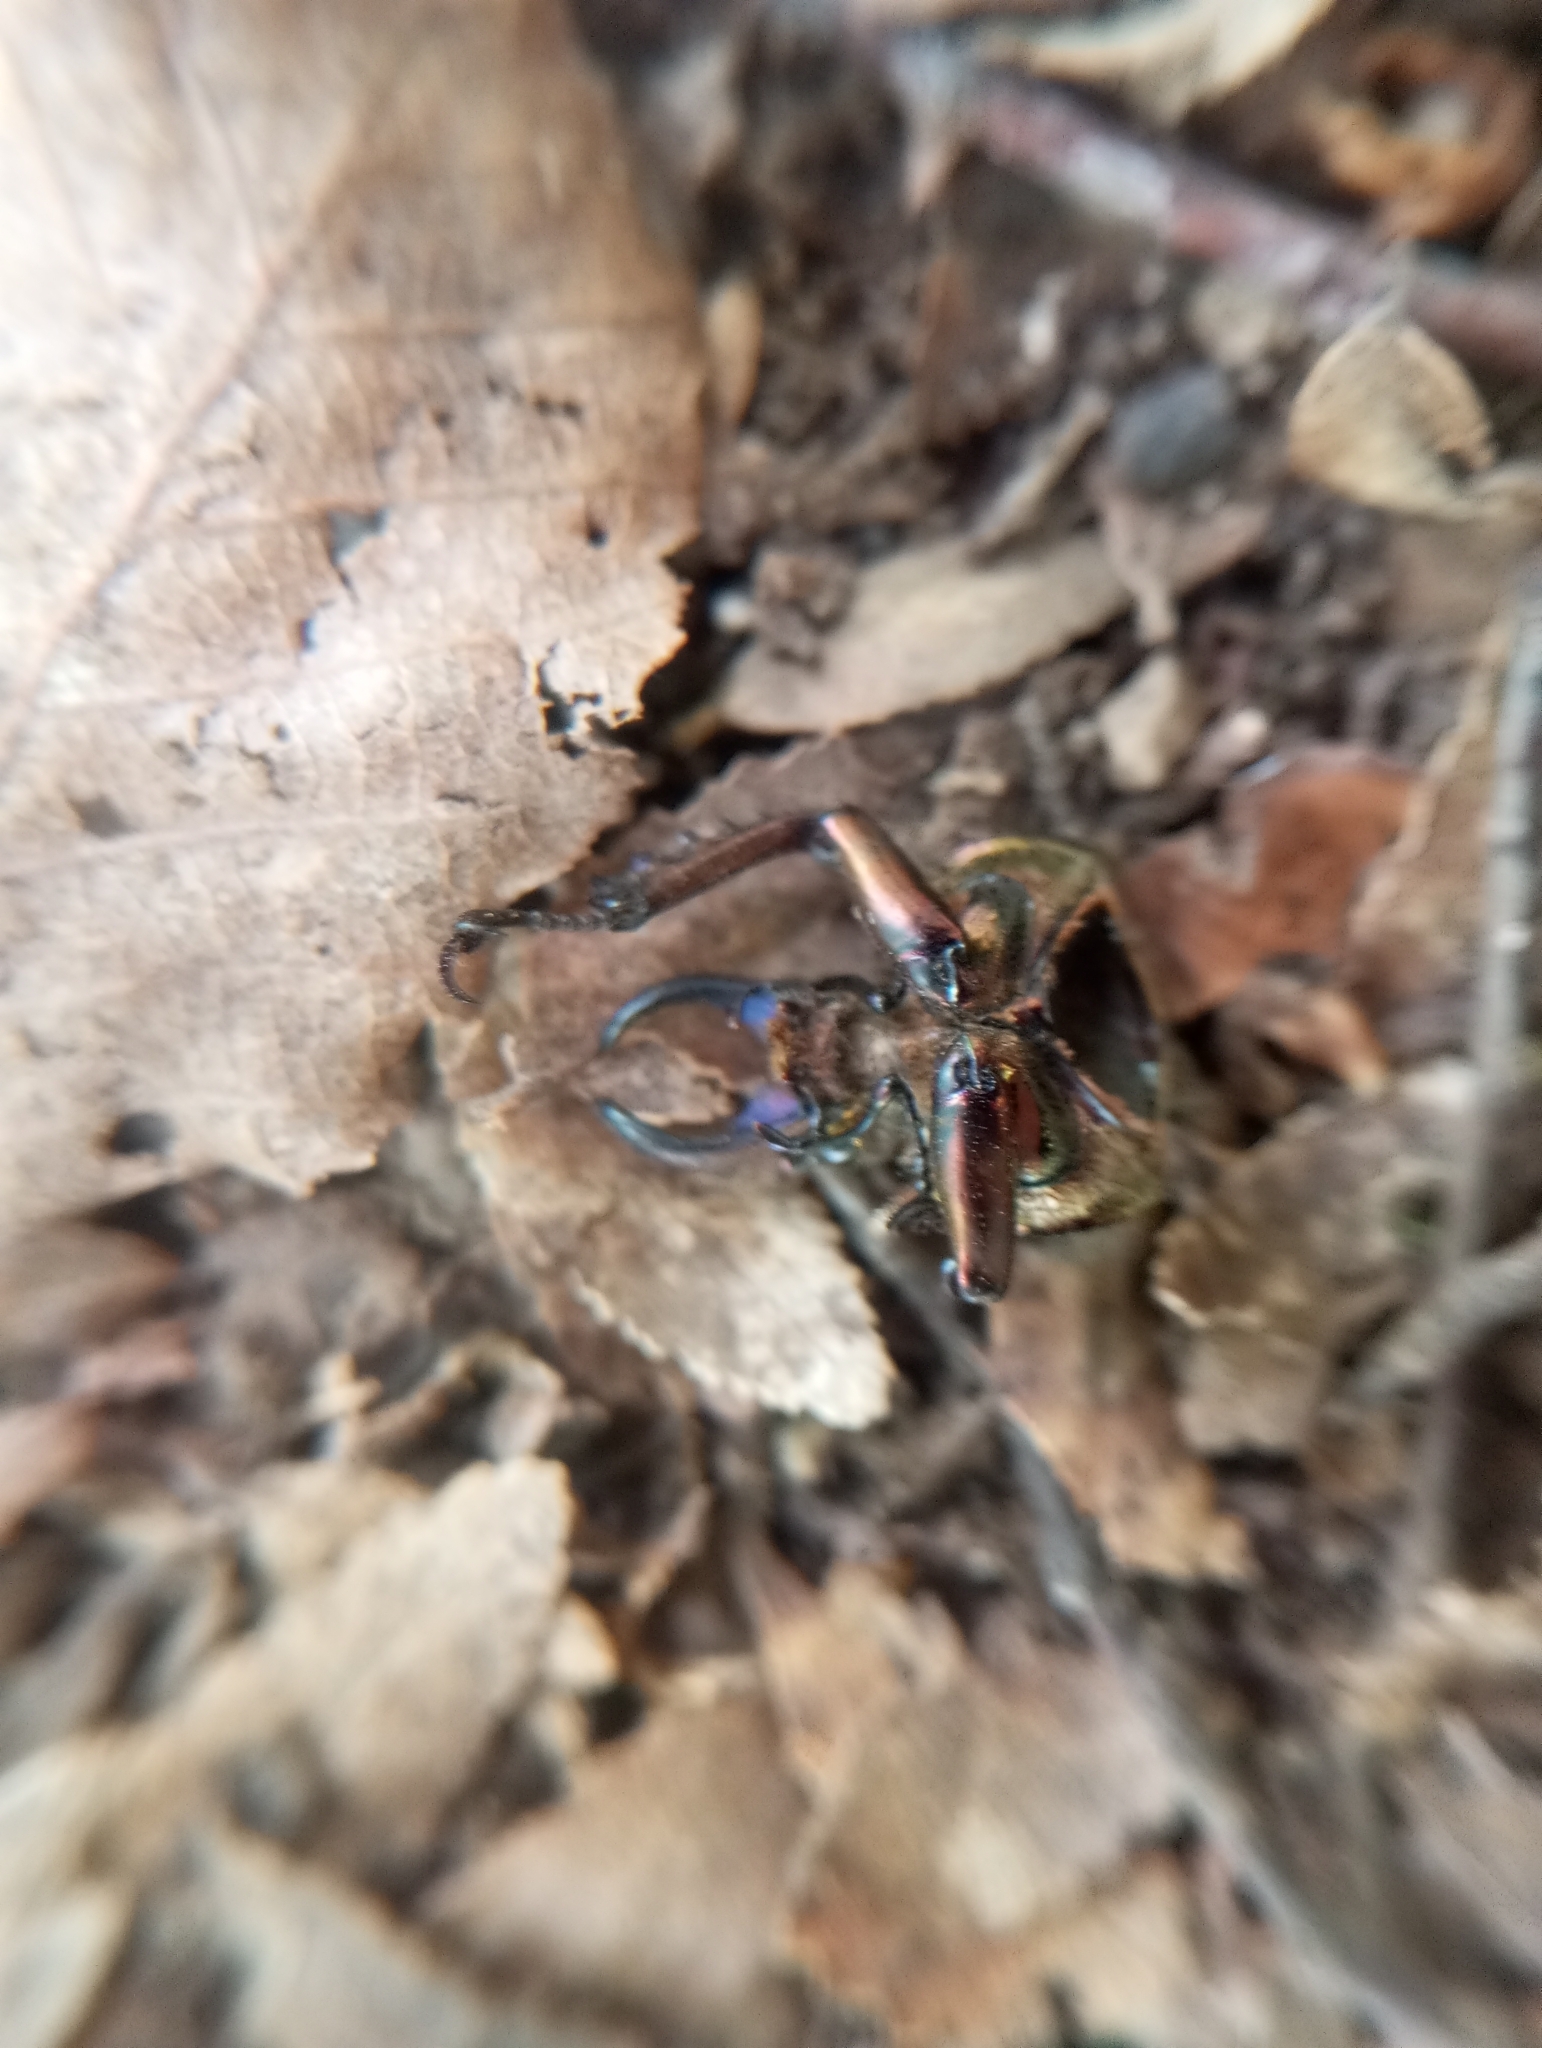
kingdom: Animalia
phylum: Arthropoda
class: Insecta
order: Coleoptera
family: Lucanidae
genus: Streptocerus
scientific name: Streptocerus speciosus
